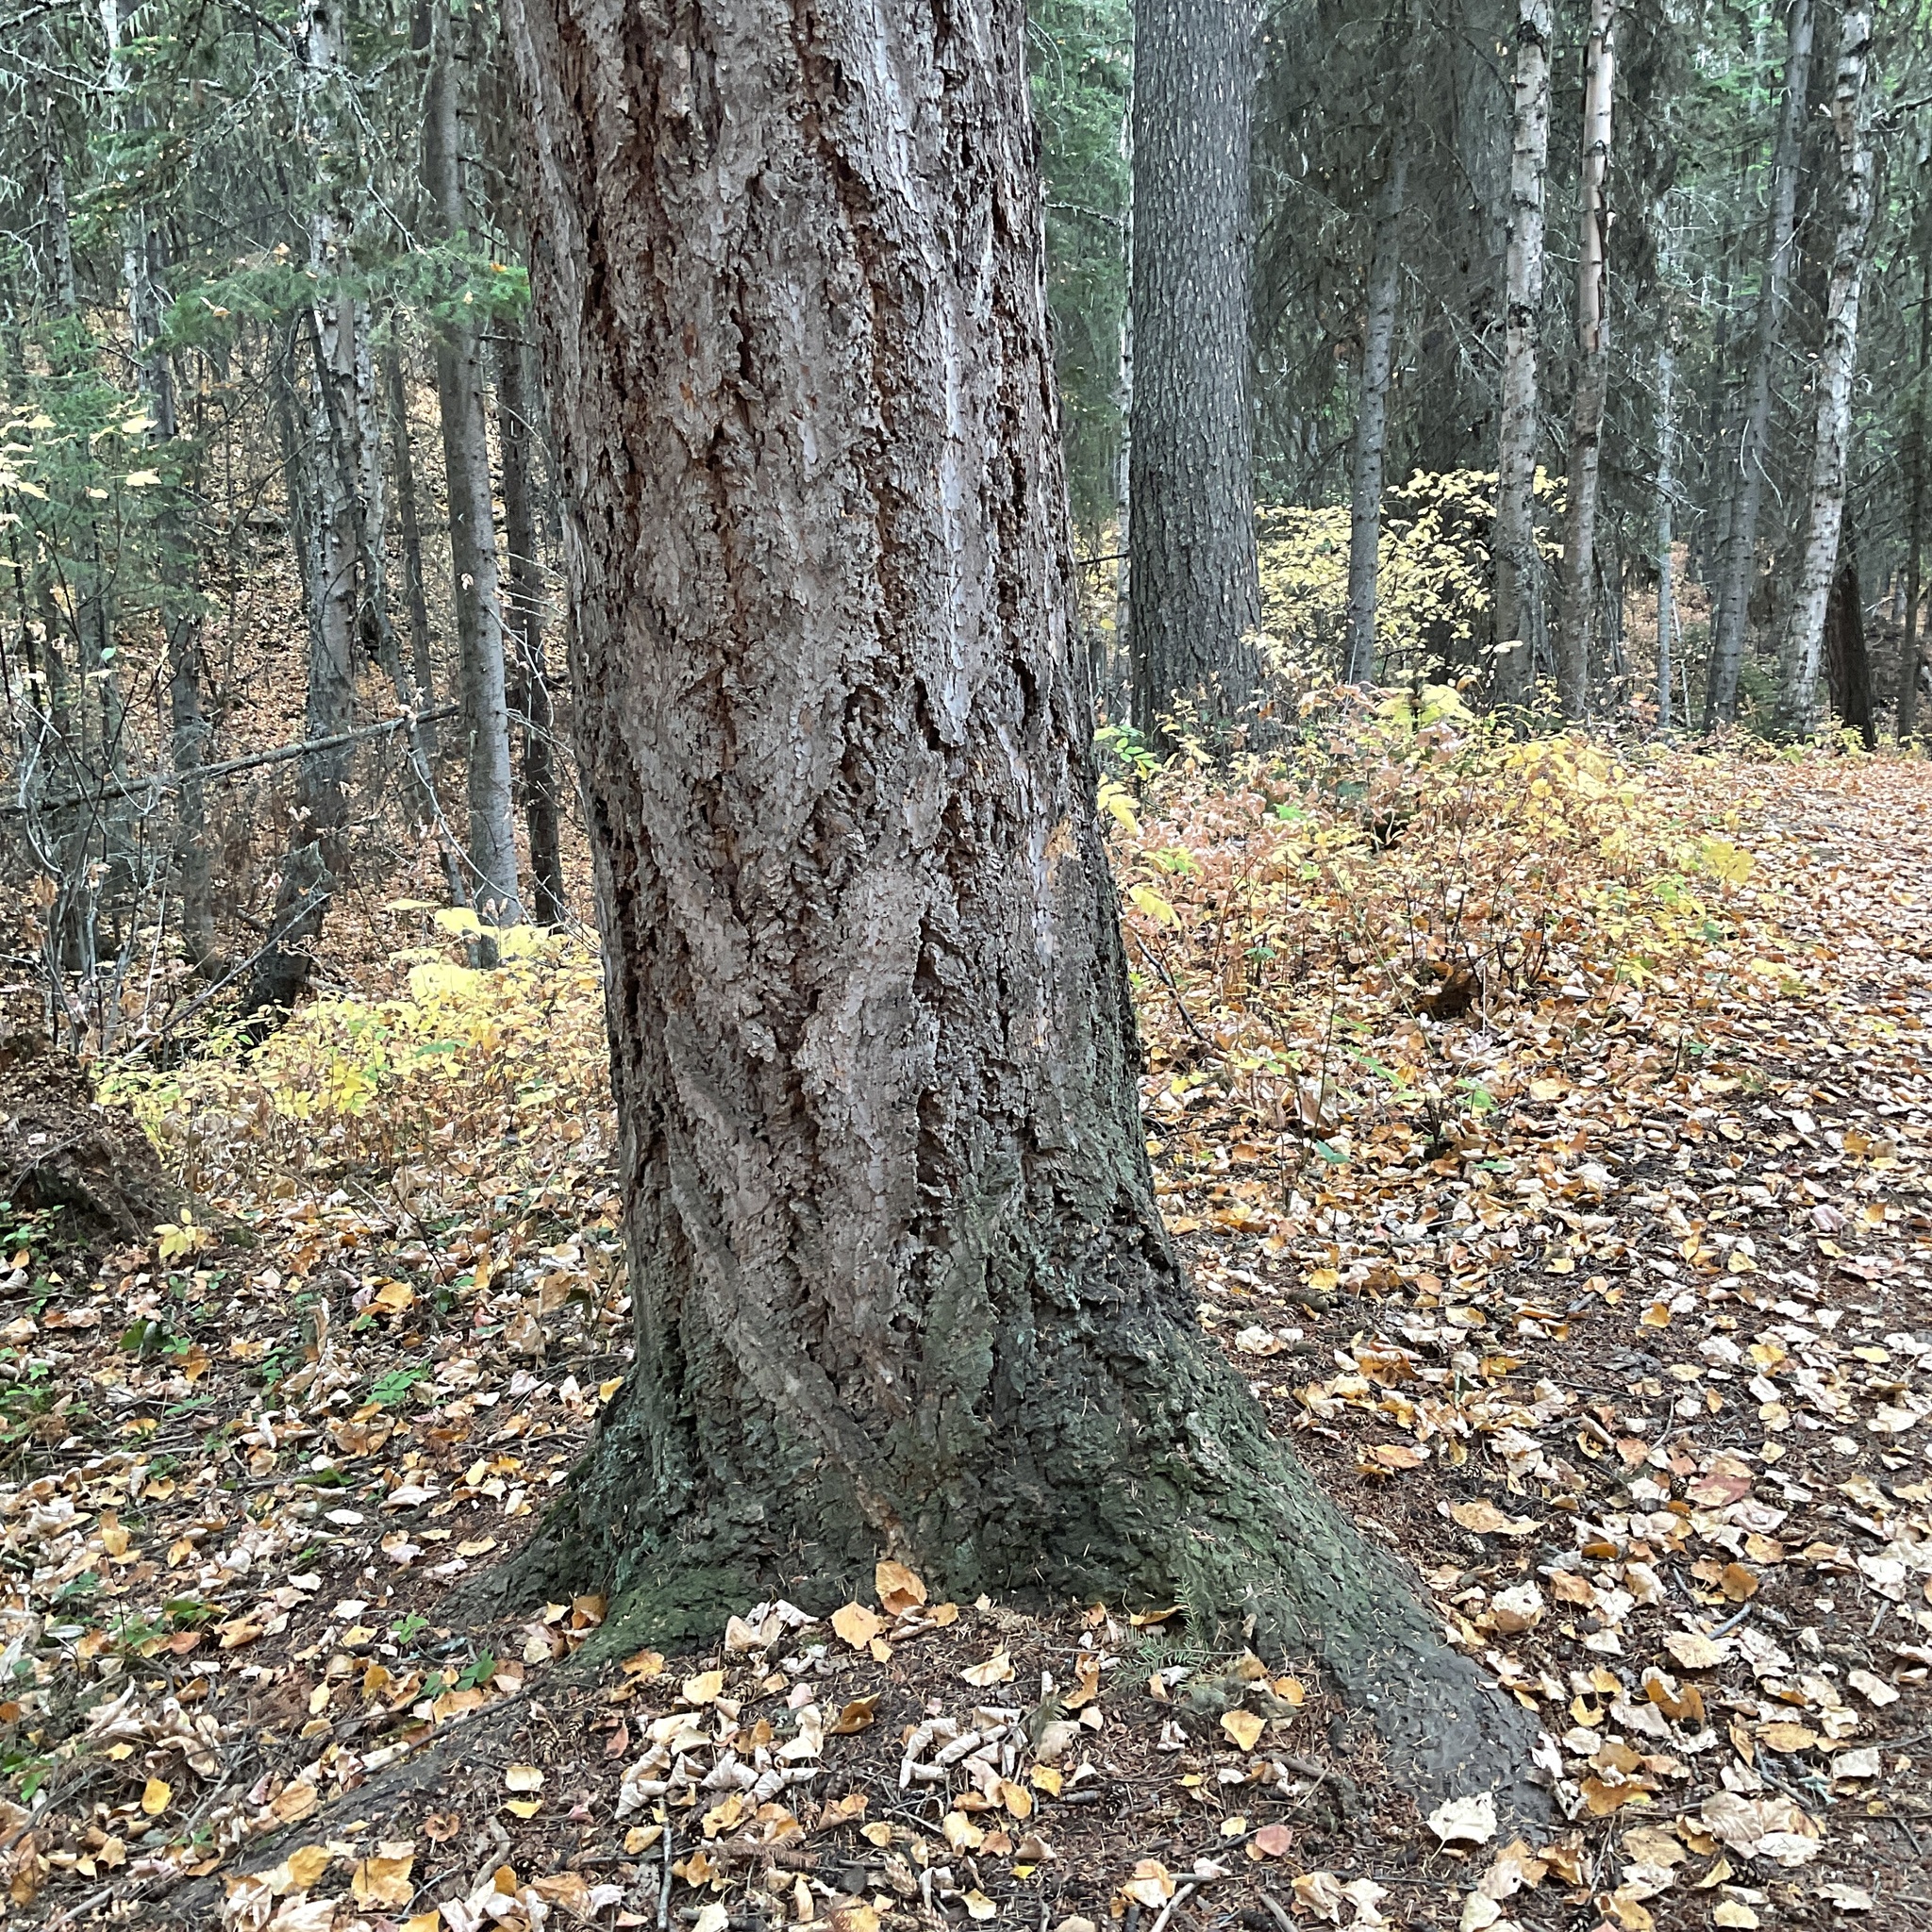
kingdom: Plantae
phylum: Tracheophyta
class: Pinopsida
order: Pinales
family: Pinaceae
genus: Pseudotsuga
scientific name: Pseudotsuga menziesii
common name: Douglas fir
